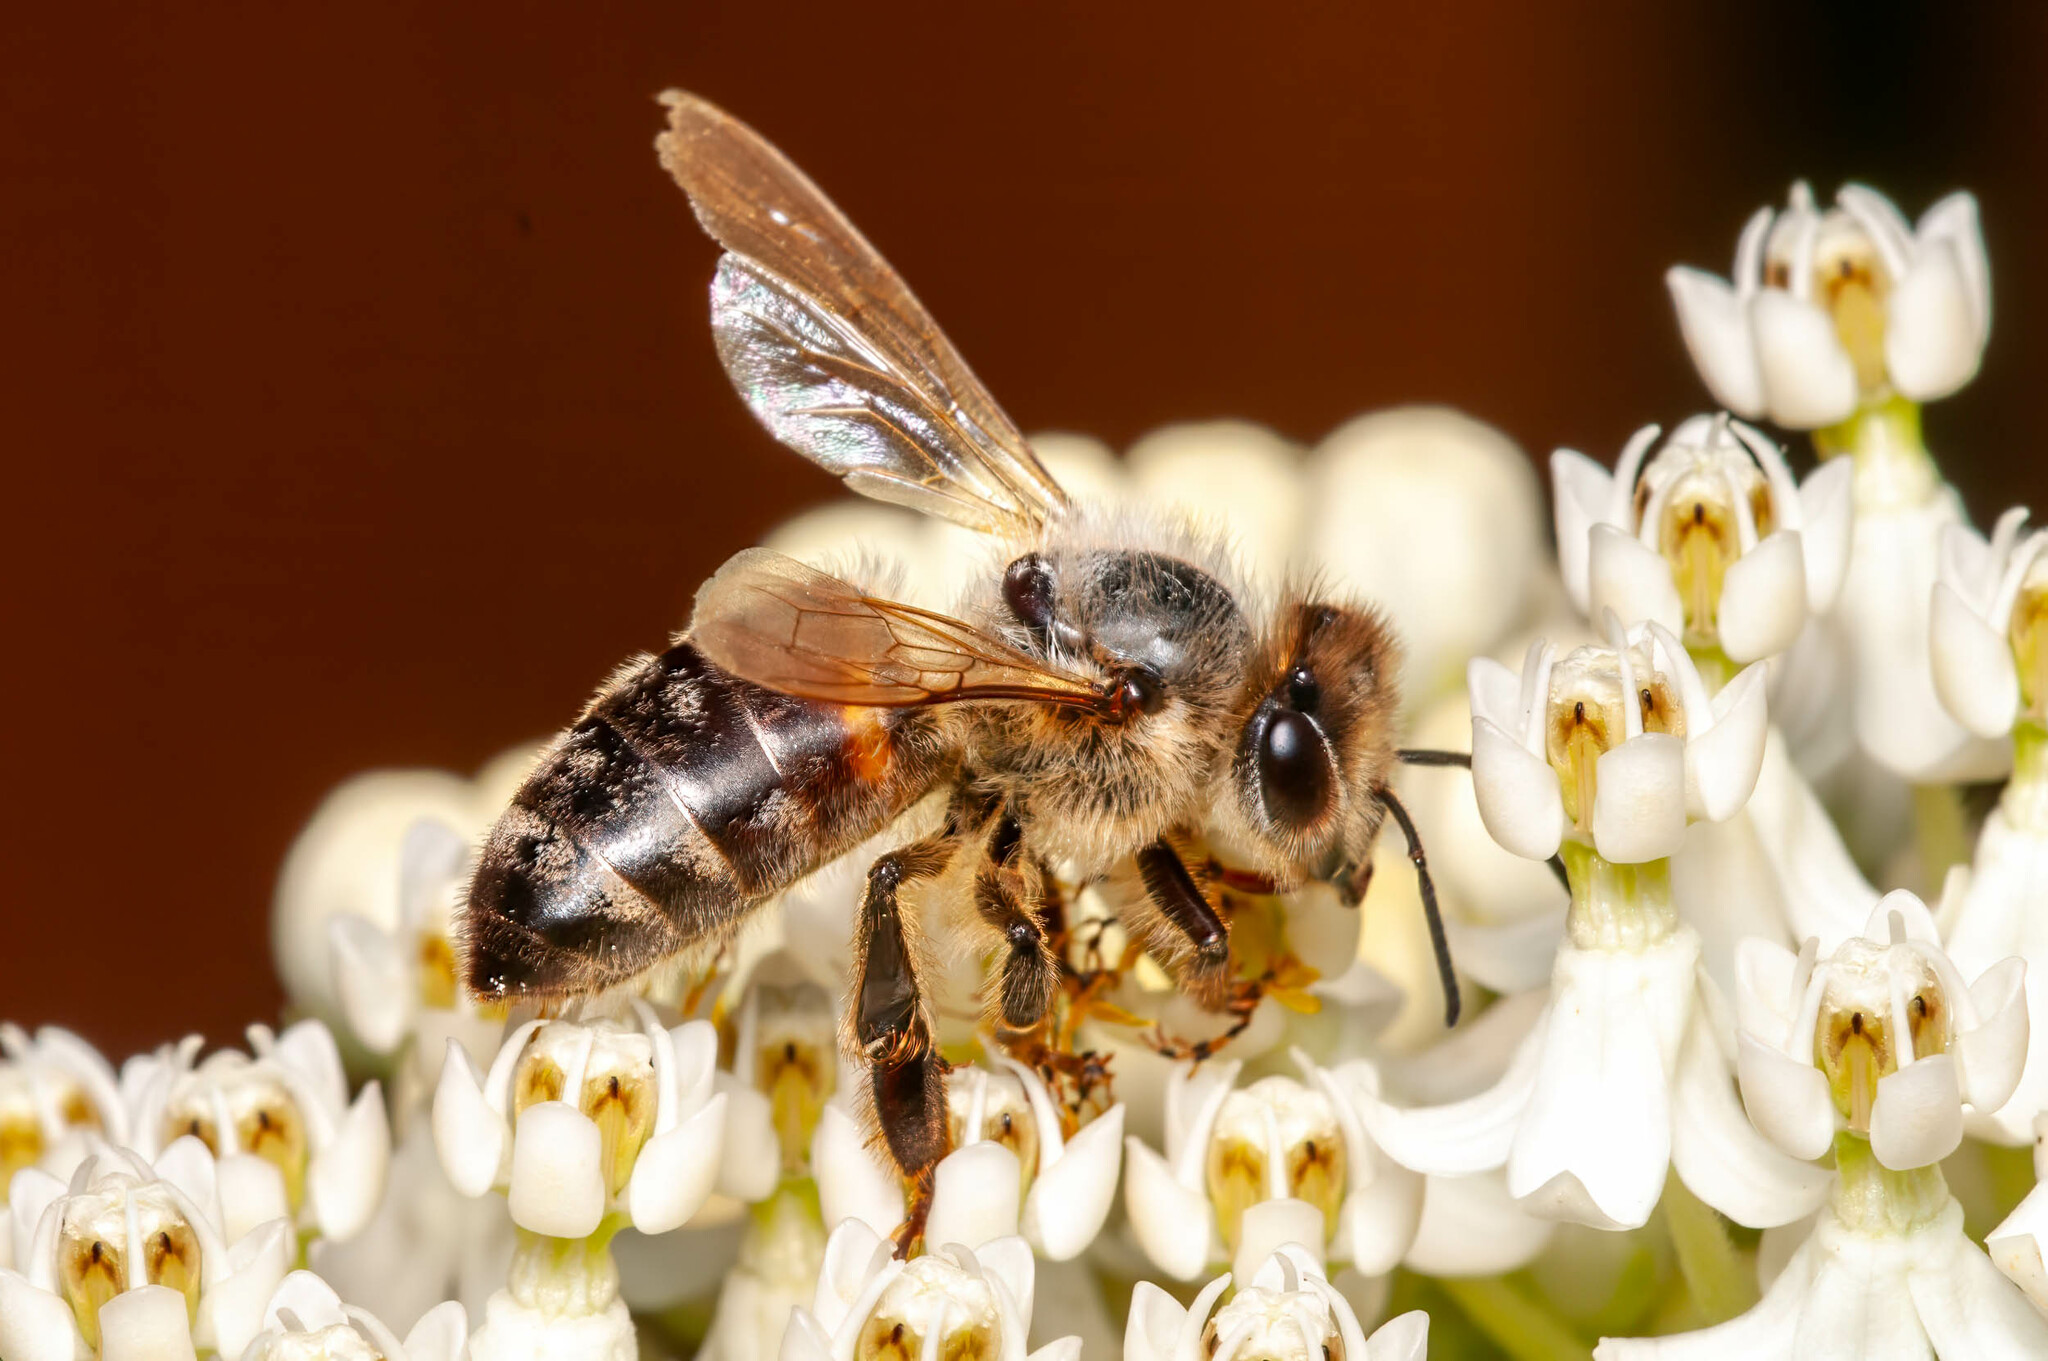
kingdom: Animalia
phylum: Arthropoda
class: Insecta
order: Hymenoptera
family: Apidae
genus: Apis
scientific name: Apis mellifera
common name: Honey bee
